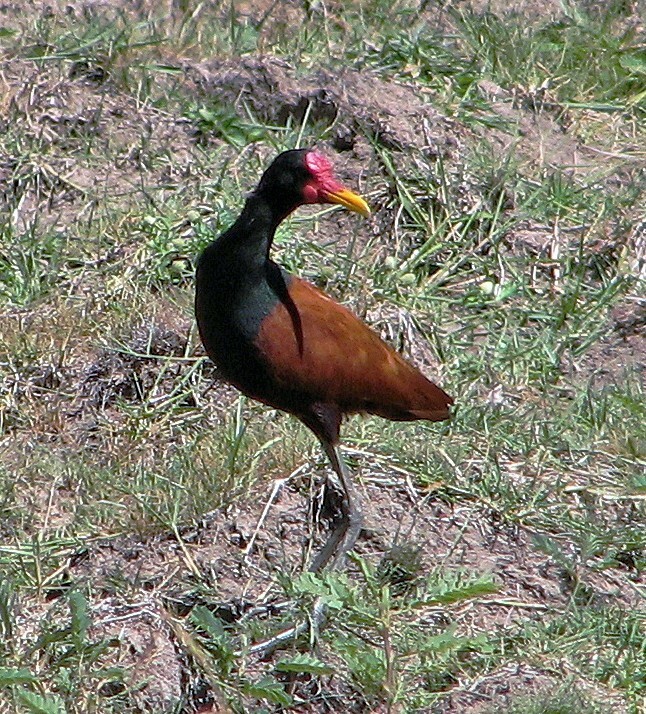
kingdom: Animalia
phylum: Chordata
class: Aves
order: Charadriiformes
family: Jacanidae
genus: Jacana
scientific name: Jacana jacana
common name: Wattled jacana
